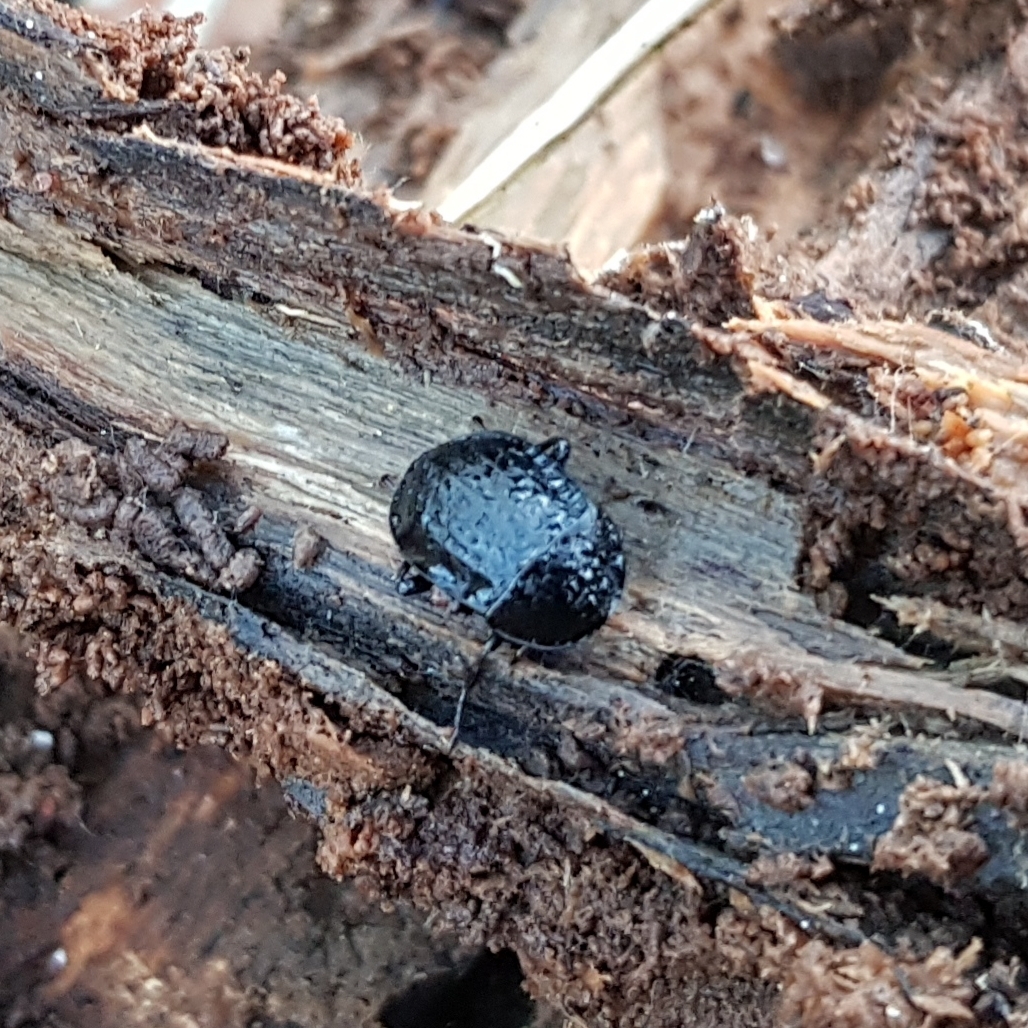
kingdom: Animalia
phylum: Arthropoda
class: Insecta
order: Coleoptera
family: Staphylinidae
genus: Silpha
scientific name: Silpha atrata
